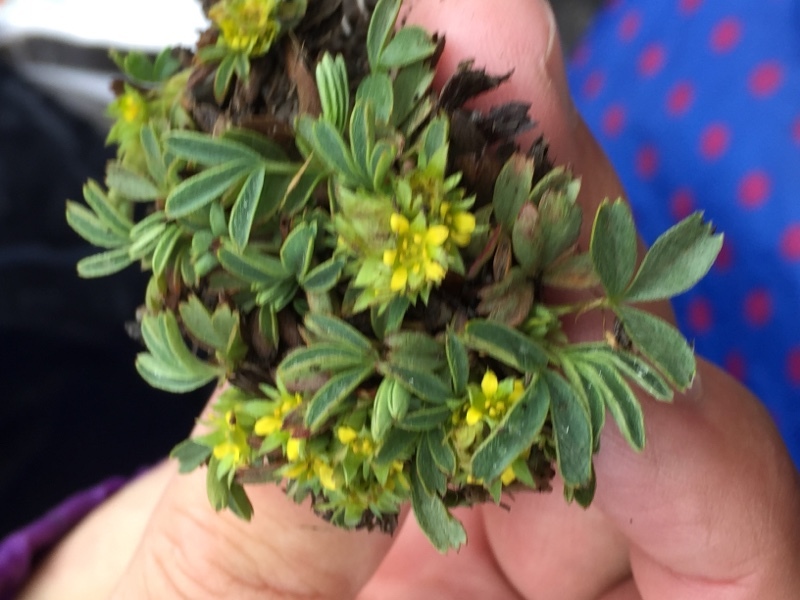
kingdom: Plantae
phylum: Tracheophyta
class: Magnoliopsida
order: Rosales
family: Rosaceae
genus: Sibbaldia
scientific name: Sibbaldia procumbens
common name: Creeping sibbaldia
